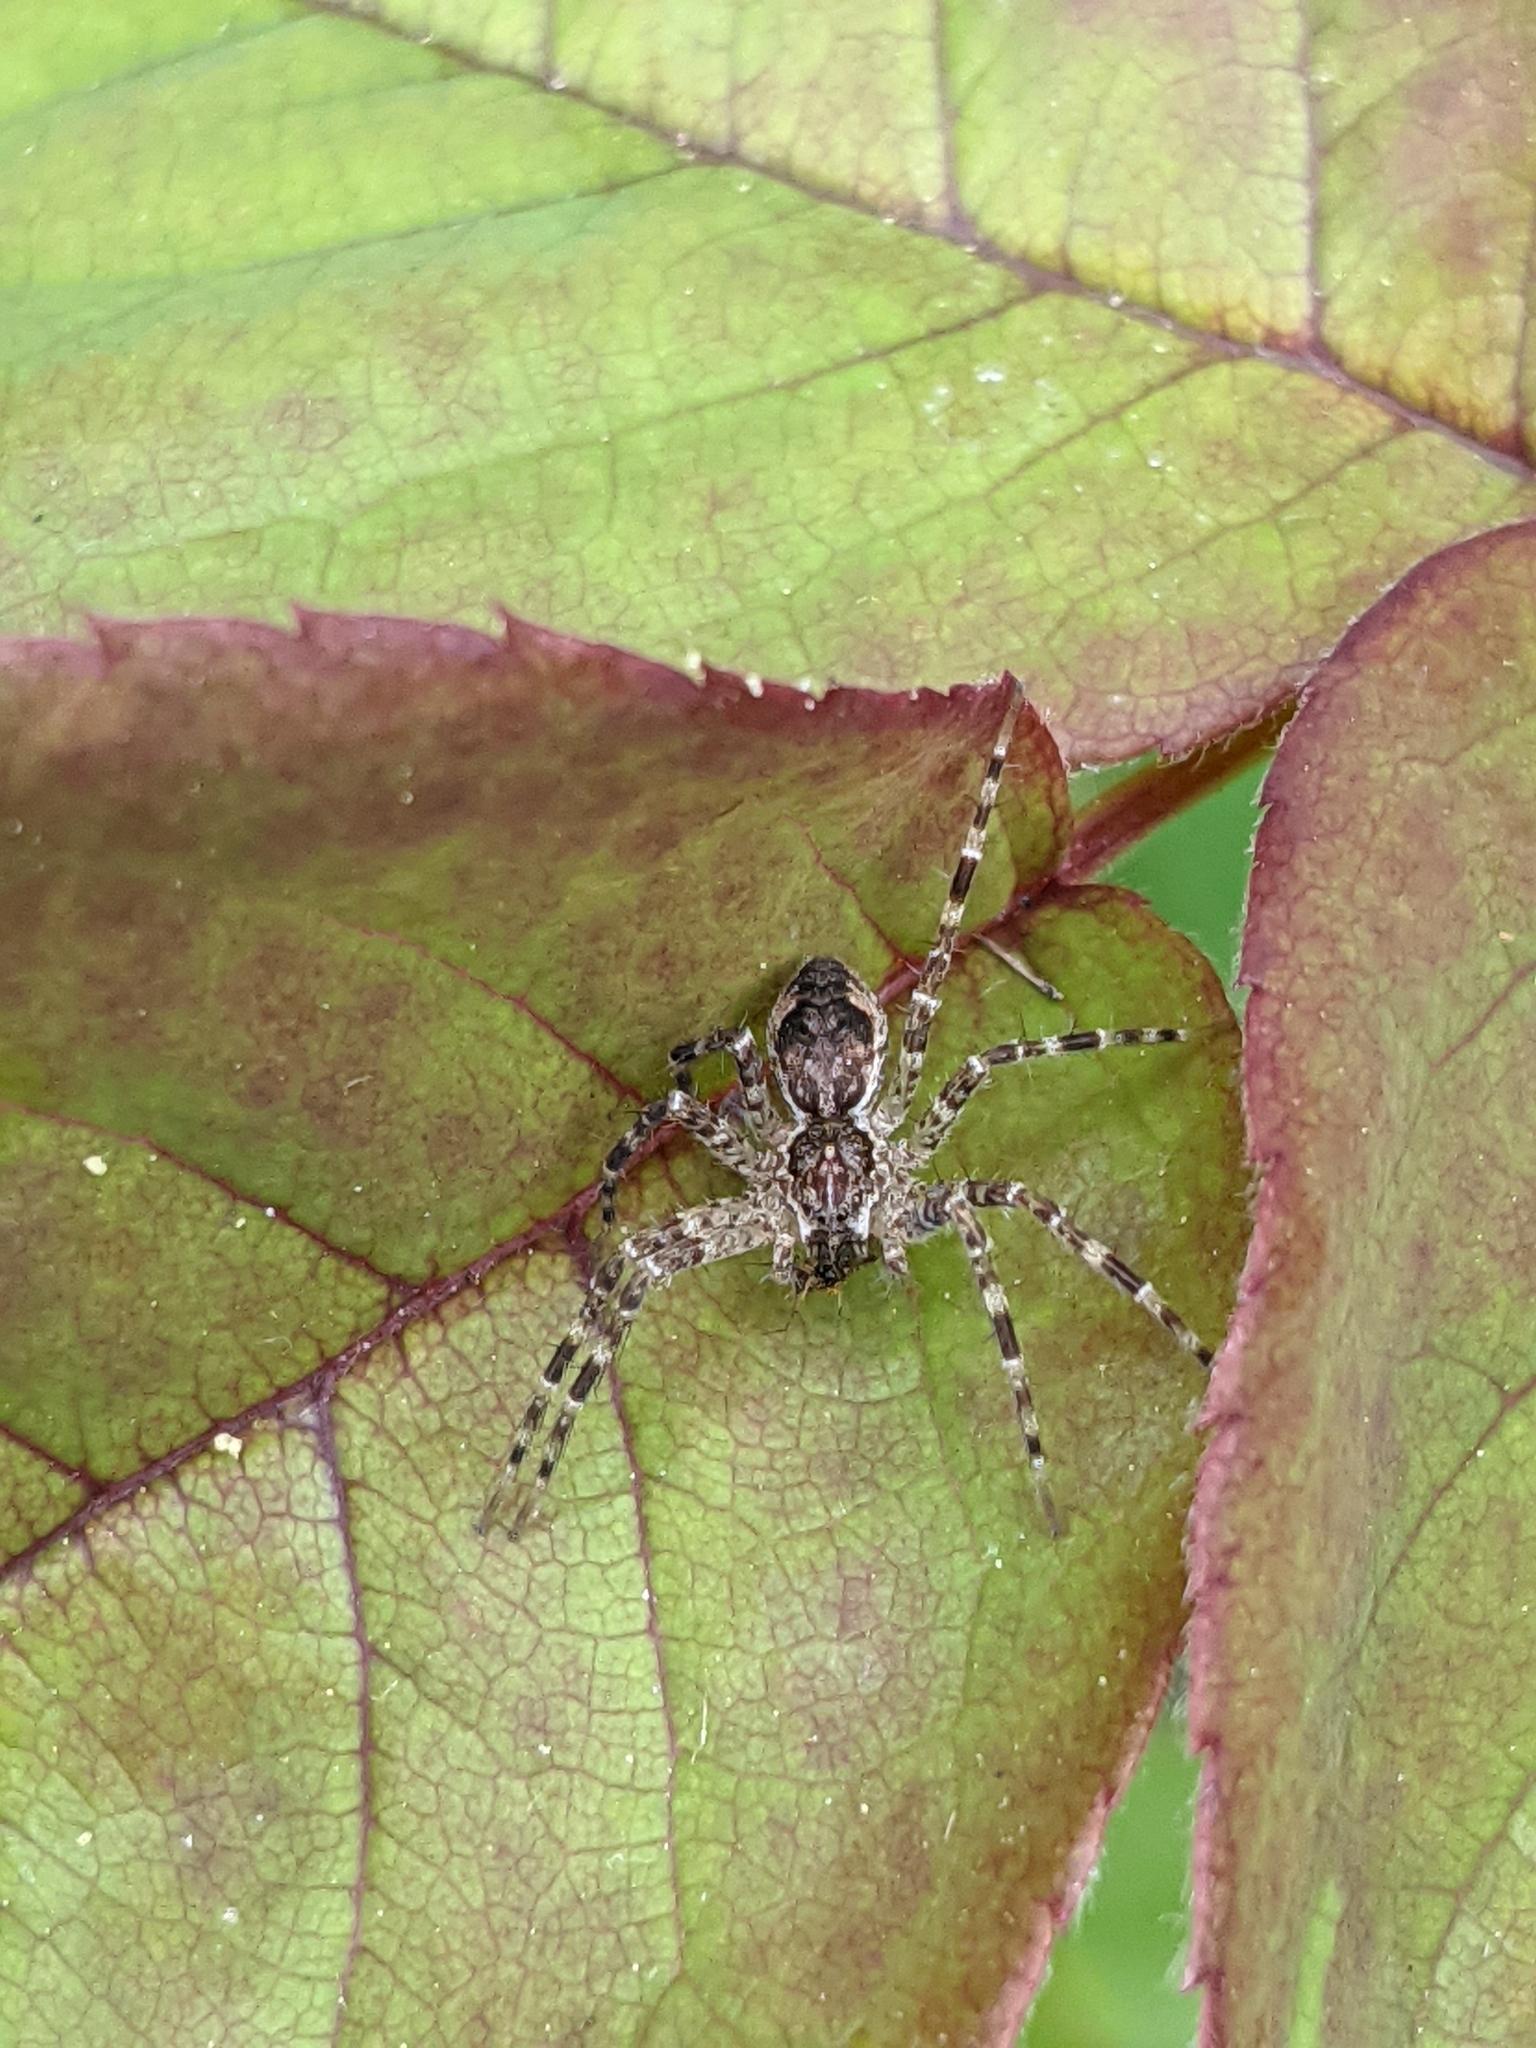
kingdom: Animalia
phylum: Arthropoda
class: Arachnida
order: Araneae
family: Pisauridae
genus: Dolomedes
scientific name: Dolomedes tenebrosus
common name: Dark fishing spider
